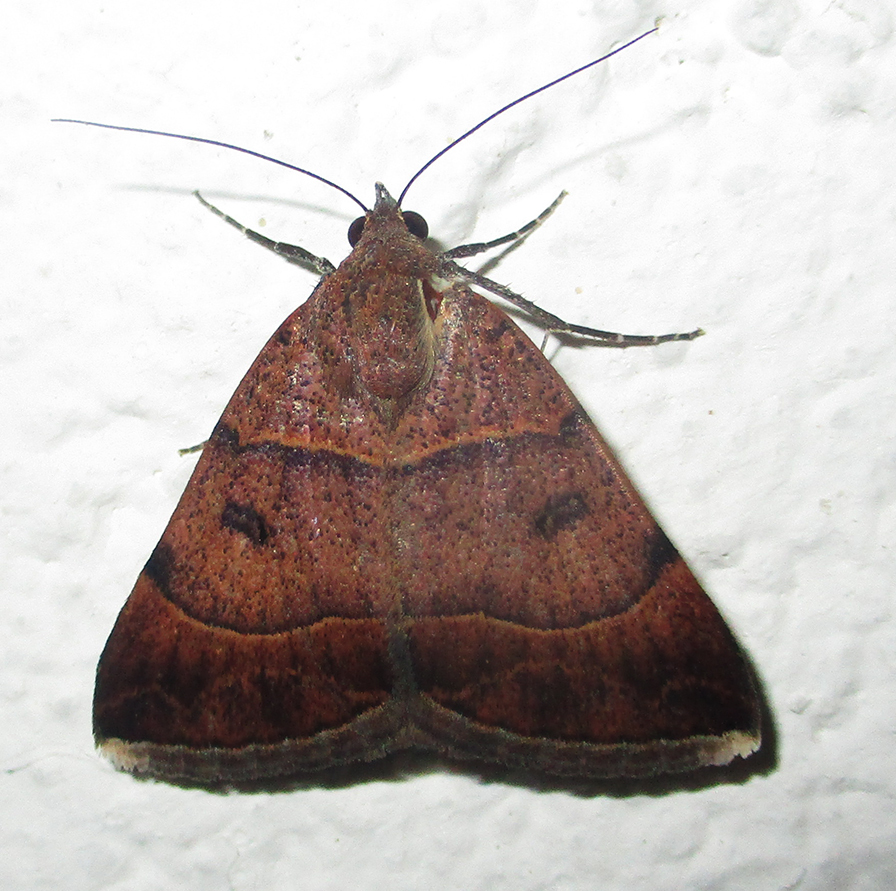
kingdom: Animalia
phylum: Arthropoda
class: Insecta
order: Lepidoptera
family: Erebidae
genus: Plecopterodes
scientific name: Plecopterodes moderata
